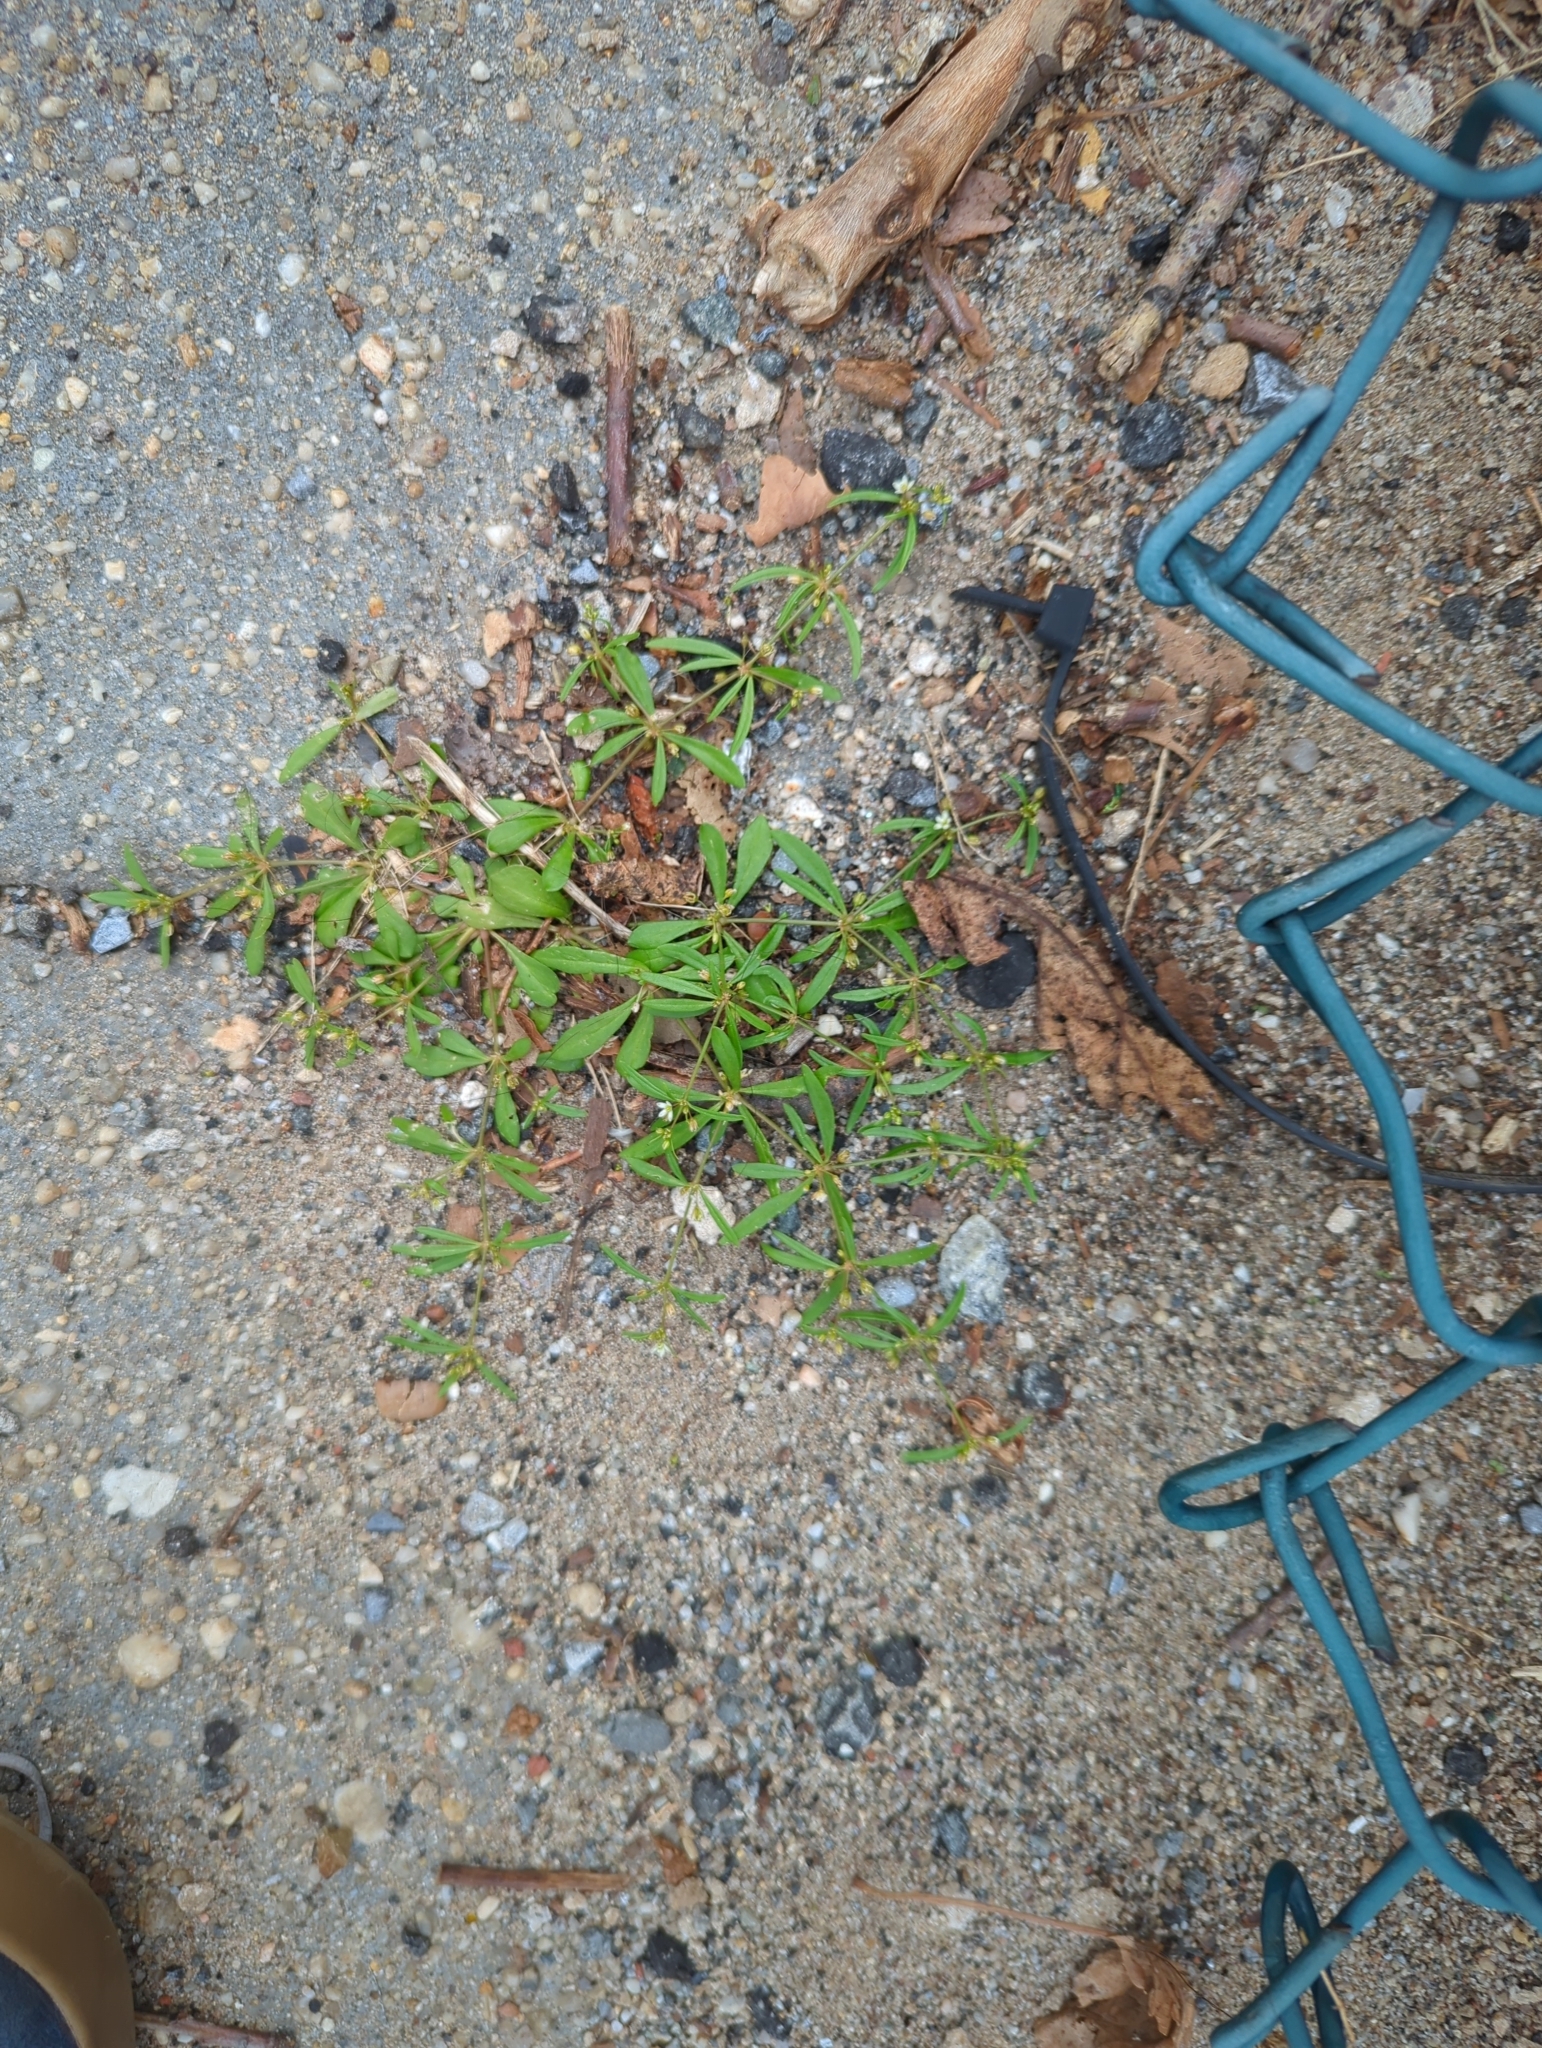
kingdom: Plantae
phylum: Tracheophyta
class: Magnoliopsida
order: Caryophyllales
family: Molluginaceae
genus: Mollugo
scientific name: Mollugo verticillata
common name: Green carpetweed
